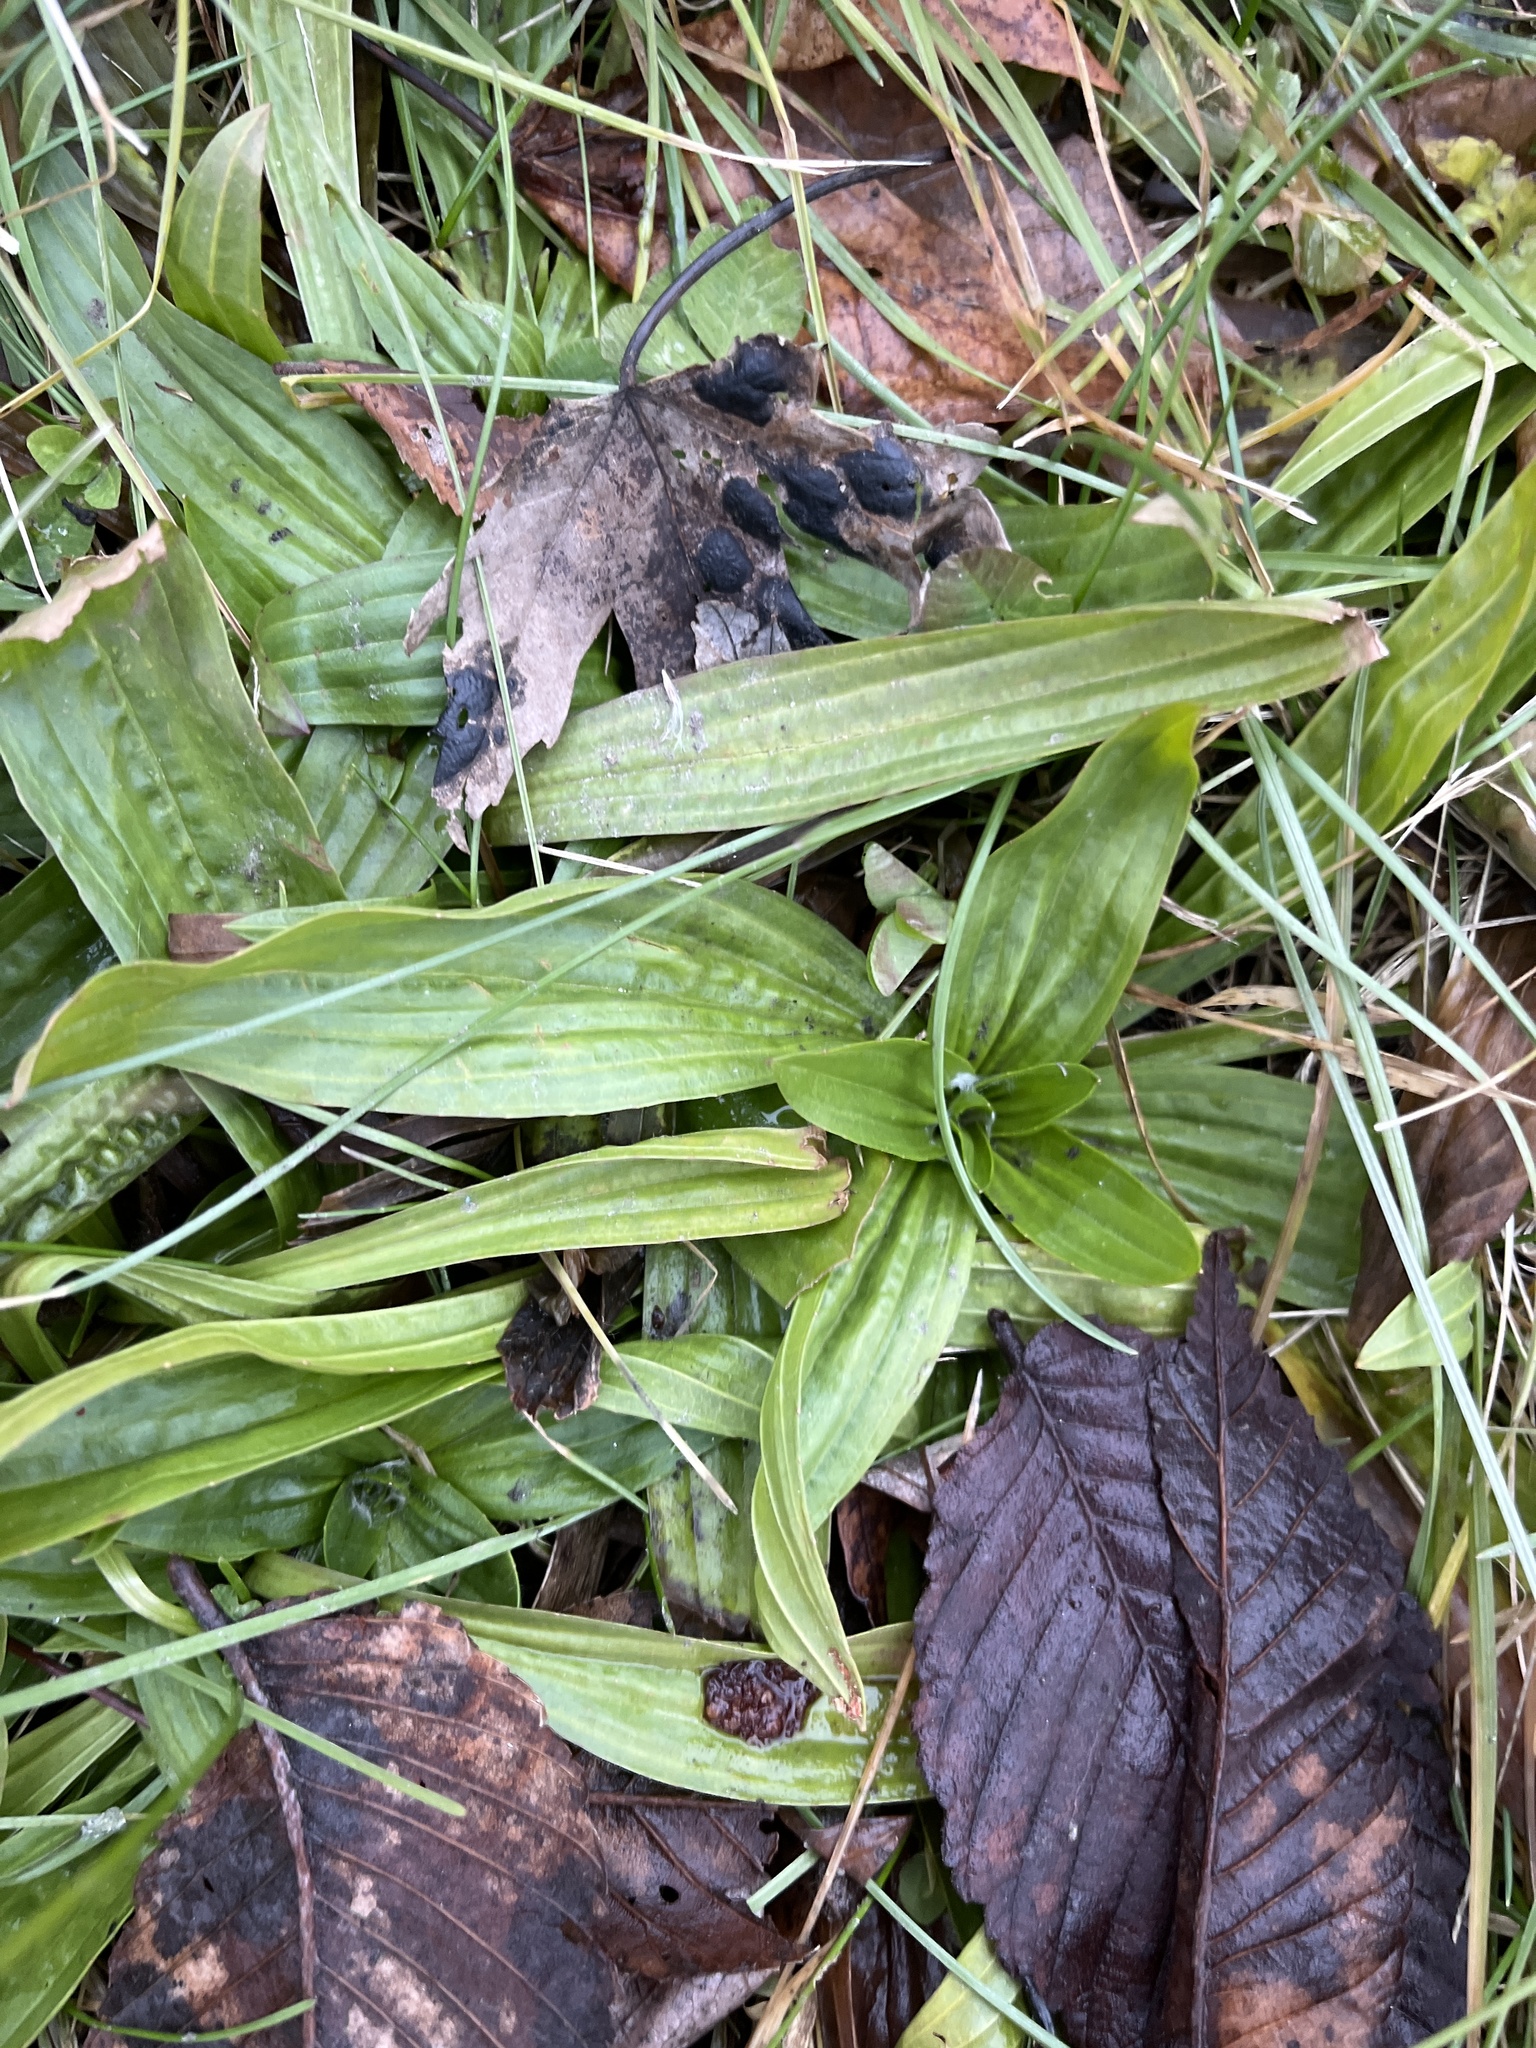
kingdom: Plantae
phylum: Tracheophyta
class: Magnoliopsida
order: Lamiales
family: Plantaginaceae
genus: Plantago
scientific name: Plantago lanceolata
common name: Ribwort plantain
